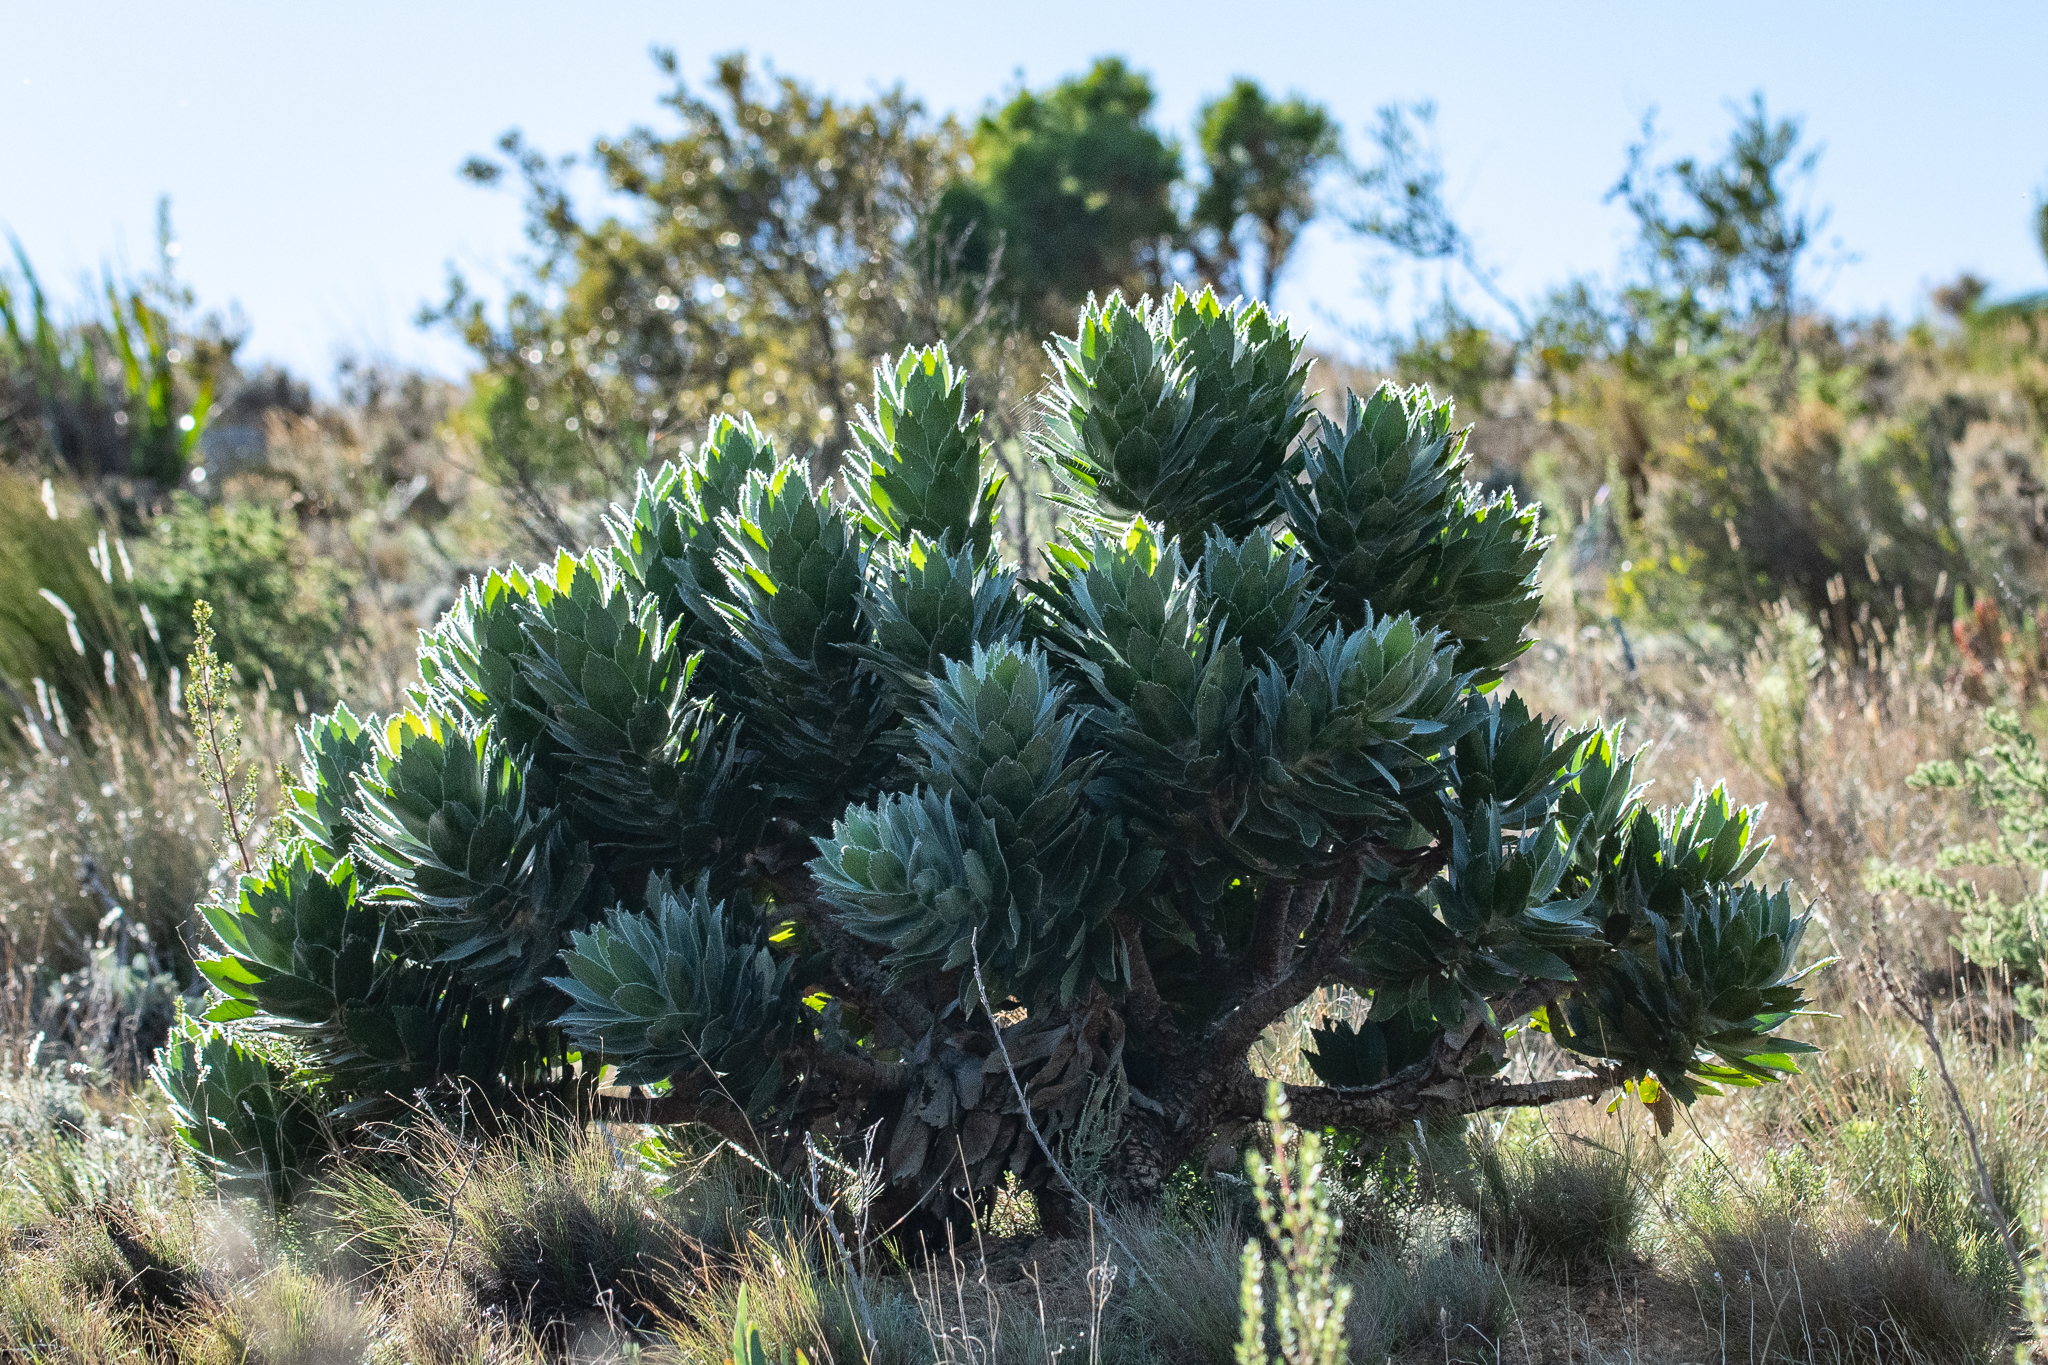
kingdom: Plantae
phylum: Tracheophyta
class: Magnoliopsida
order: Proteales
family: Proteaceae
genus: Leucospermum
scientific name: Leucospermum conocarpodendron
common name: Tree pincushion
